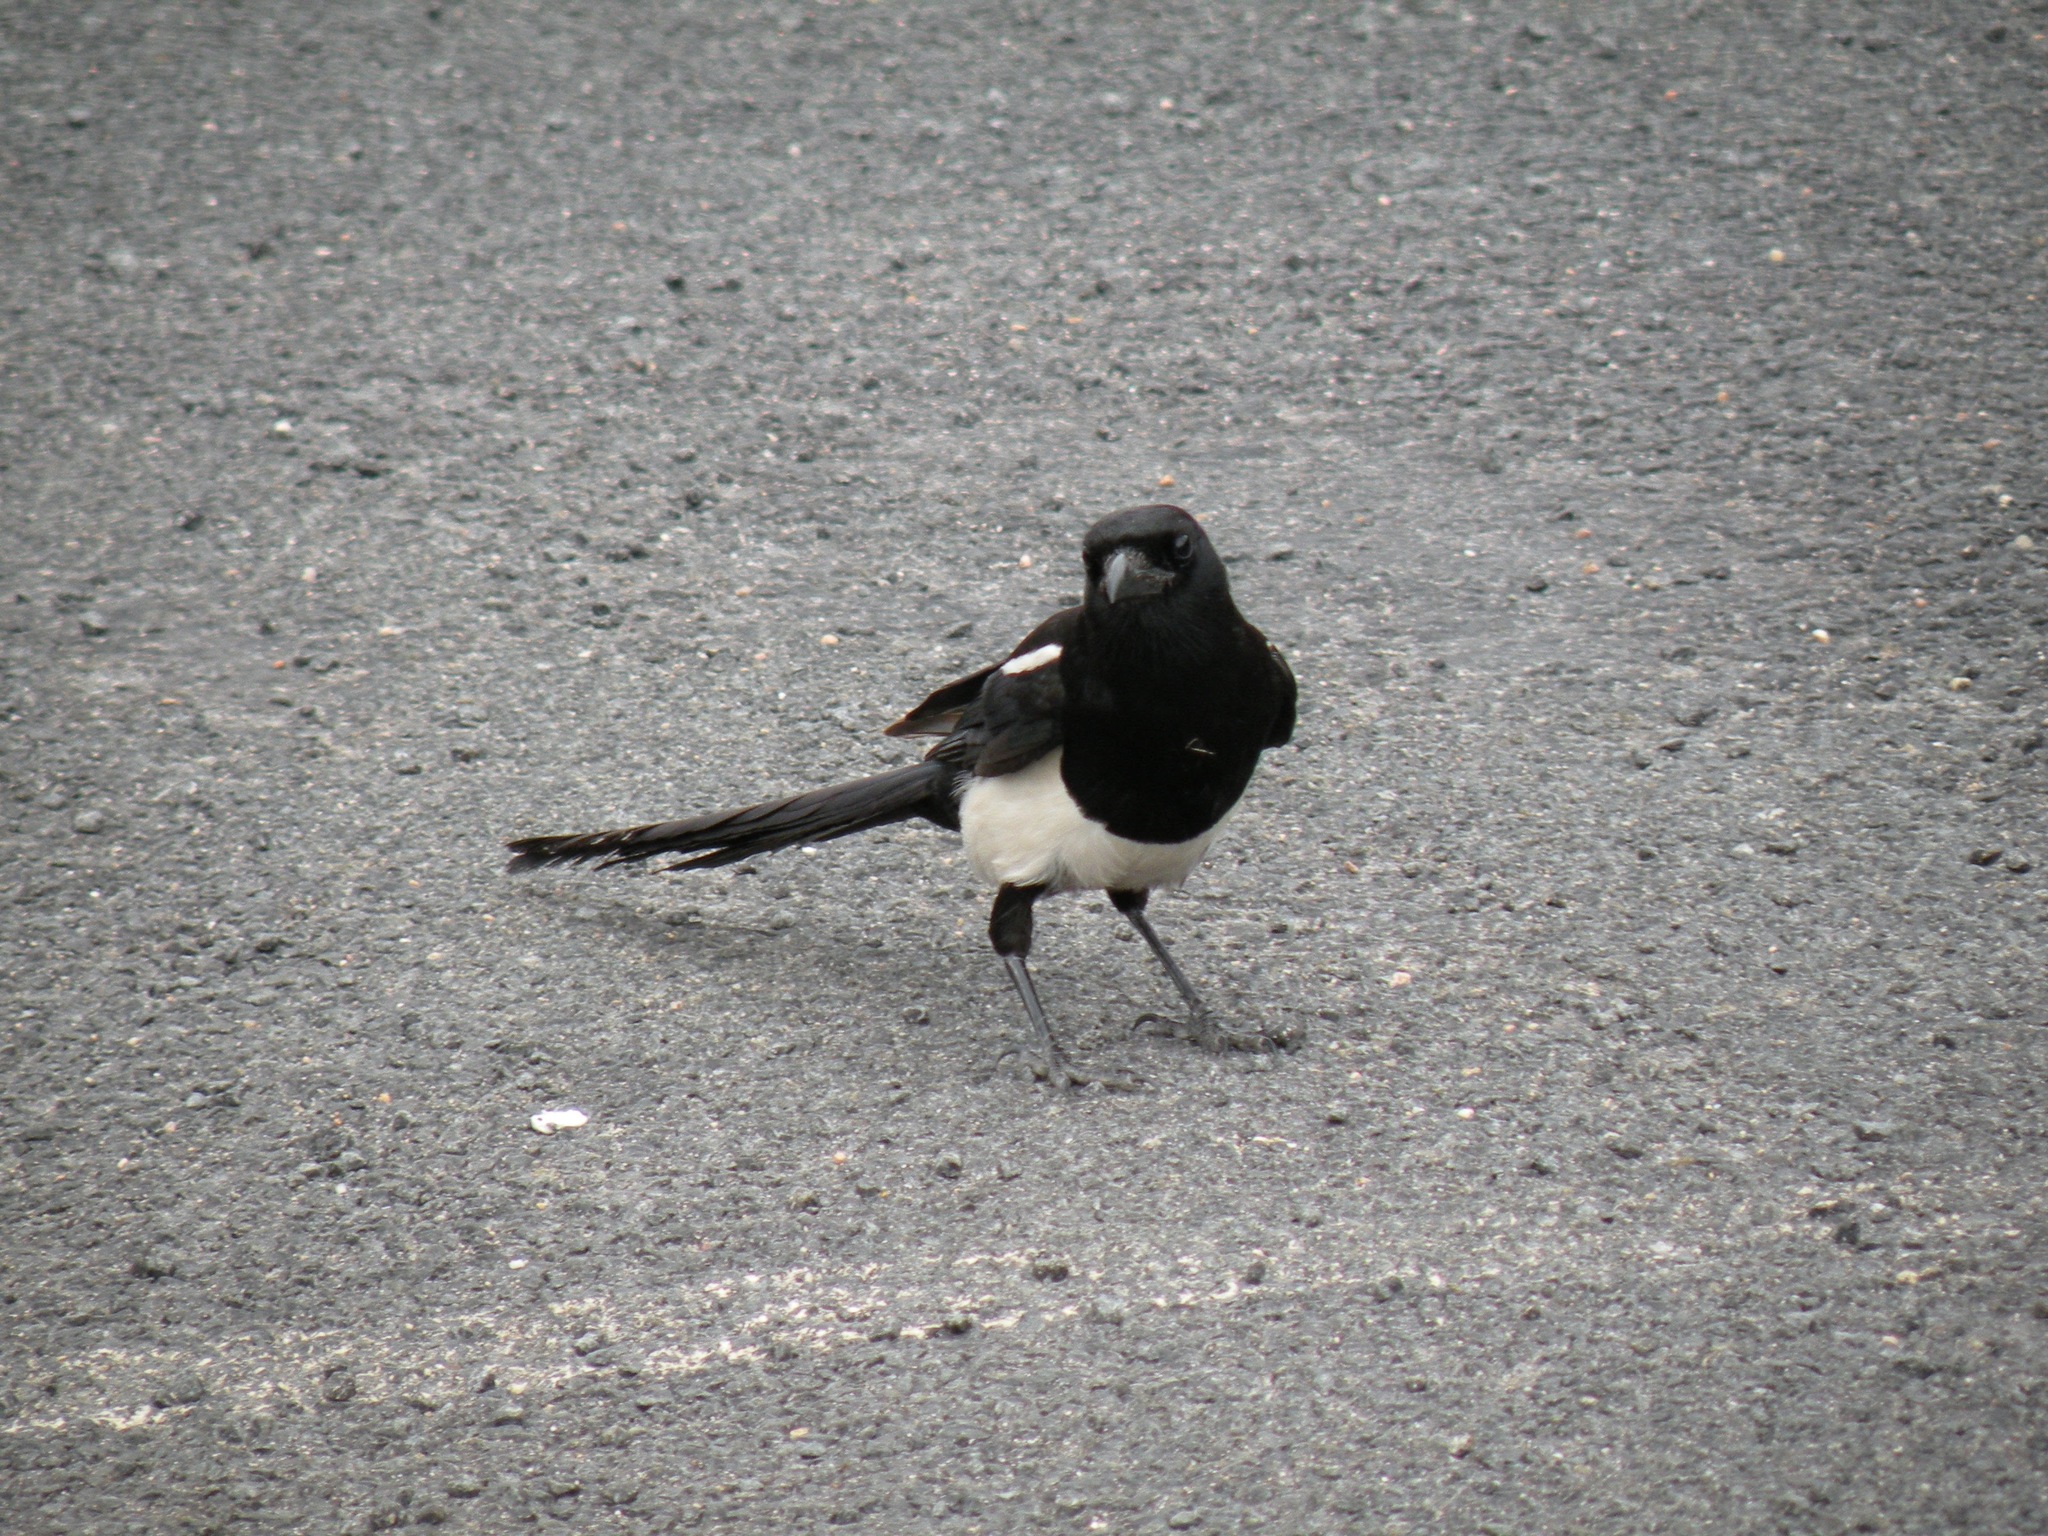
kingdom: Animalia
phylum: Chordata
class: Aves
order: Passeriformes
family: Corvidae
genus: Pica
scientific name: Pica hudsonia
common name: Black-billed magpie
